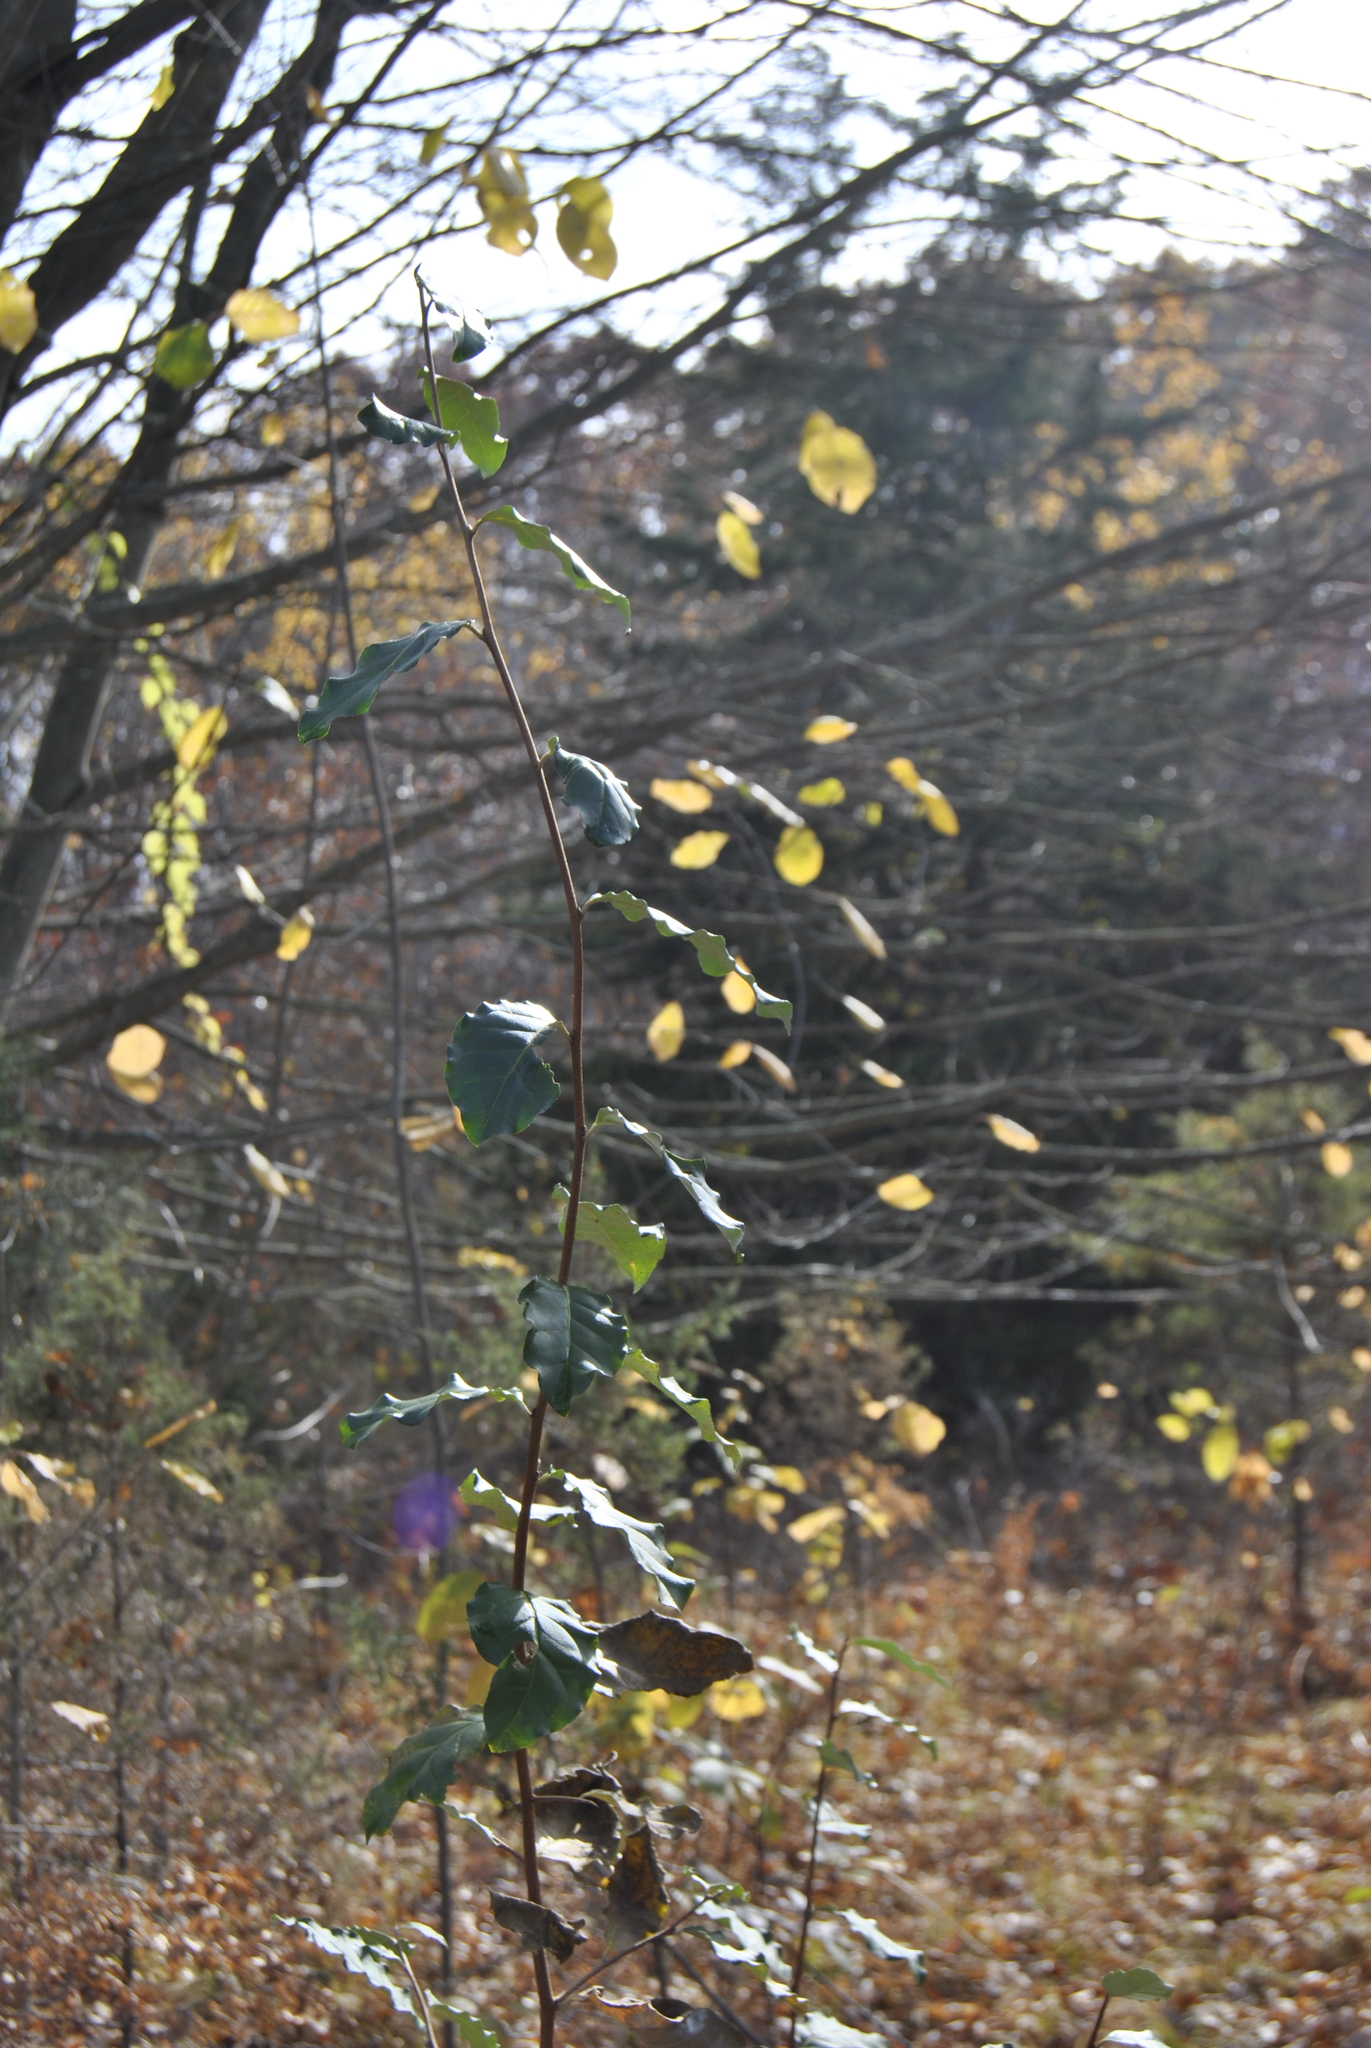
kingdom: Plantae
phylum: Tracheophyta
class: Magnoliopsida
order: Rosales
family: Elaeagnaceae
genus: Elaeagnus
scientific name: Elaeagnus umbellata
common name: Autumn olive
